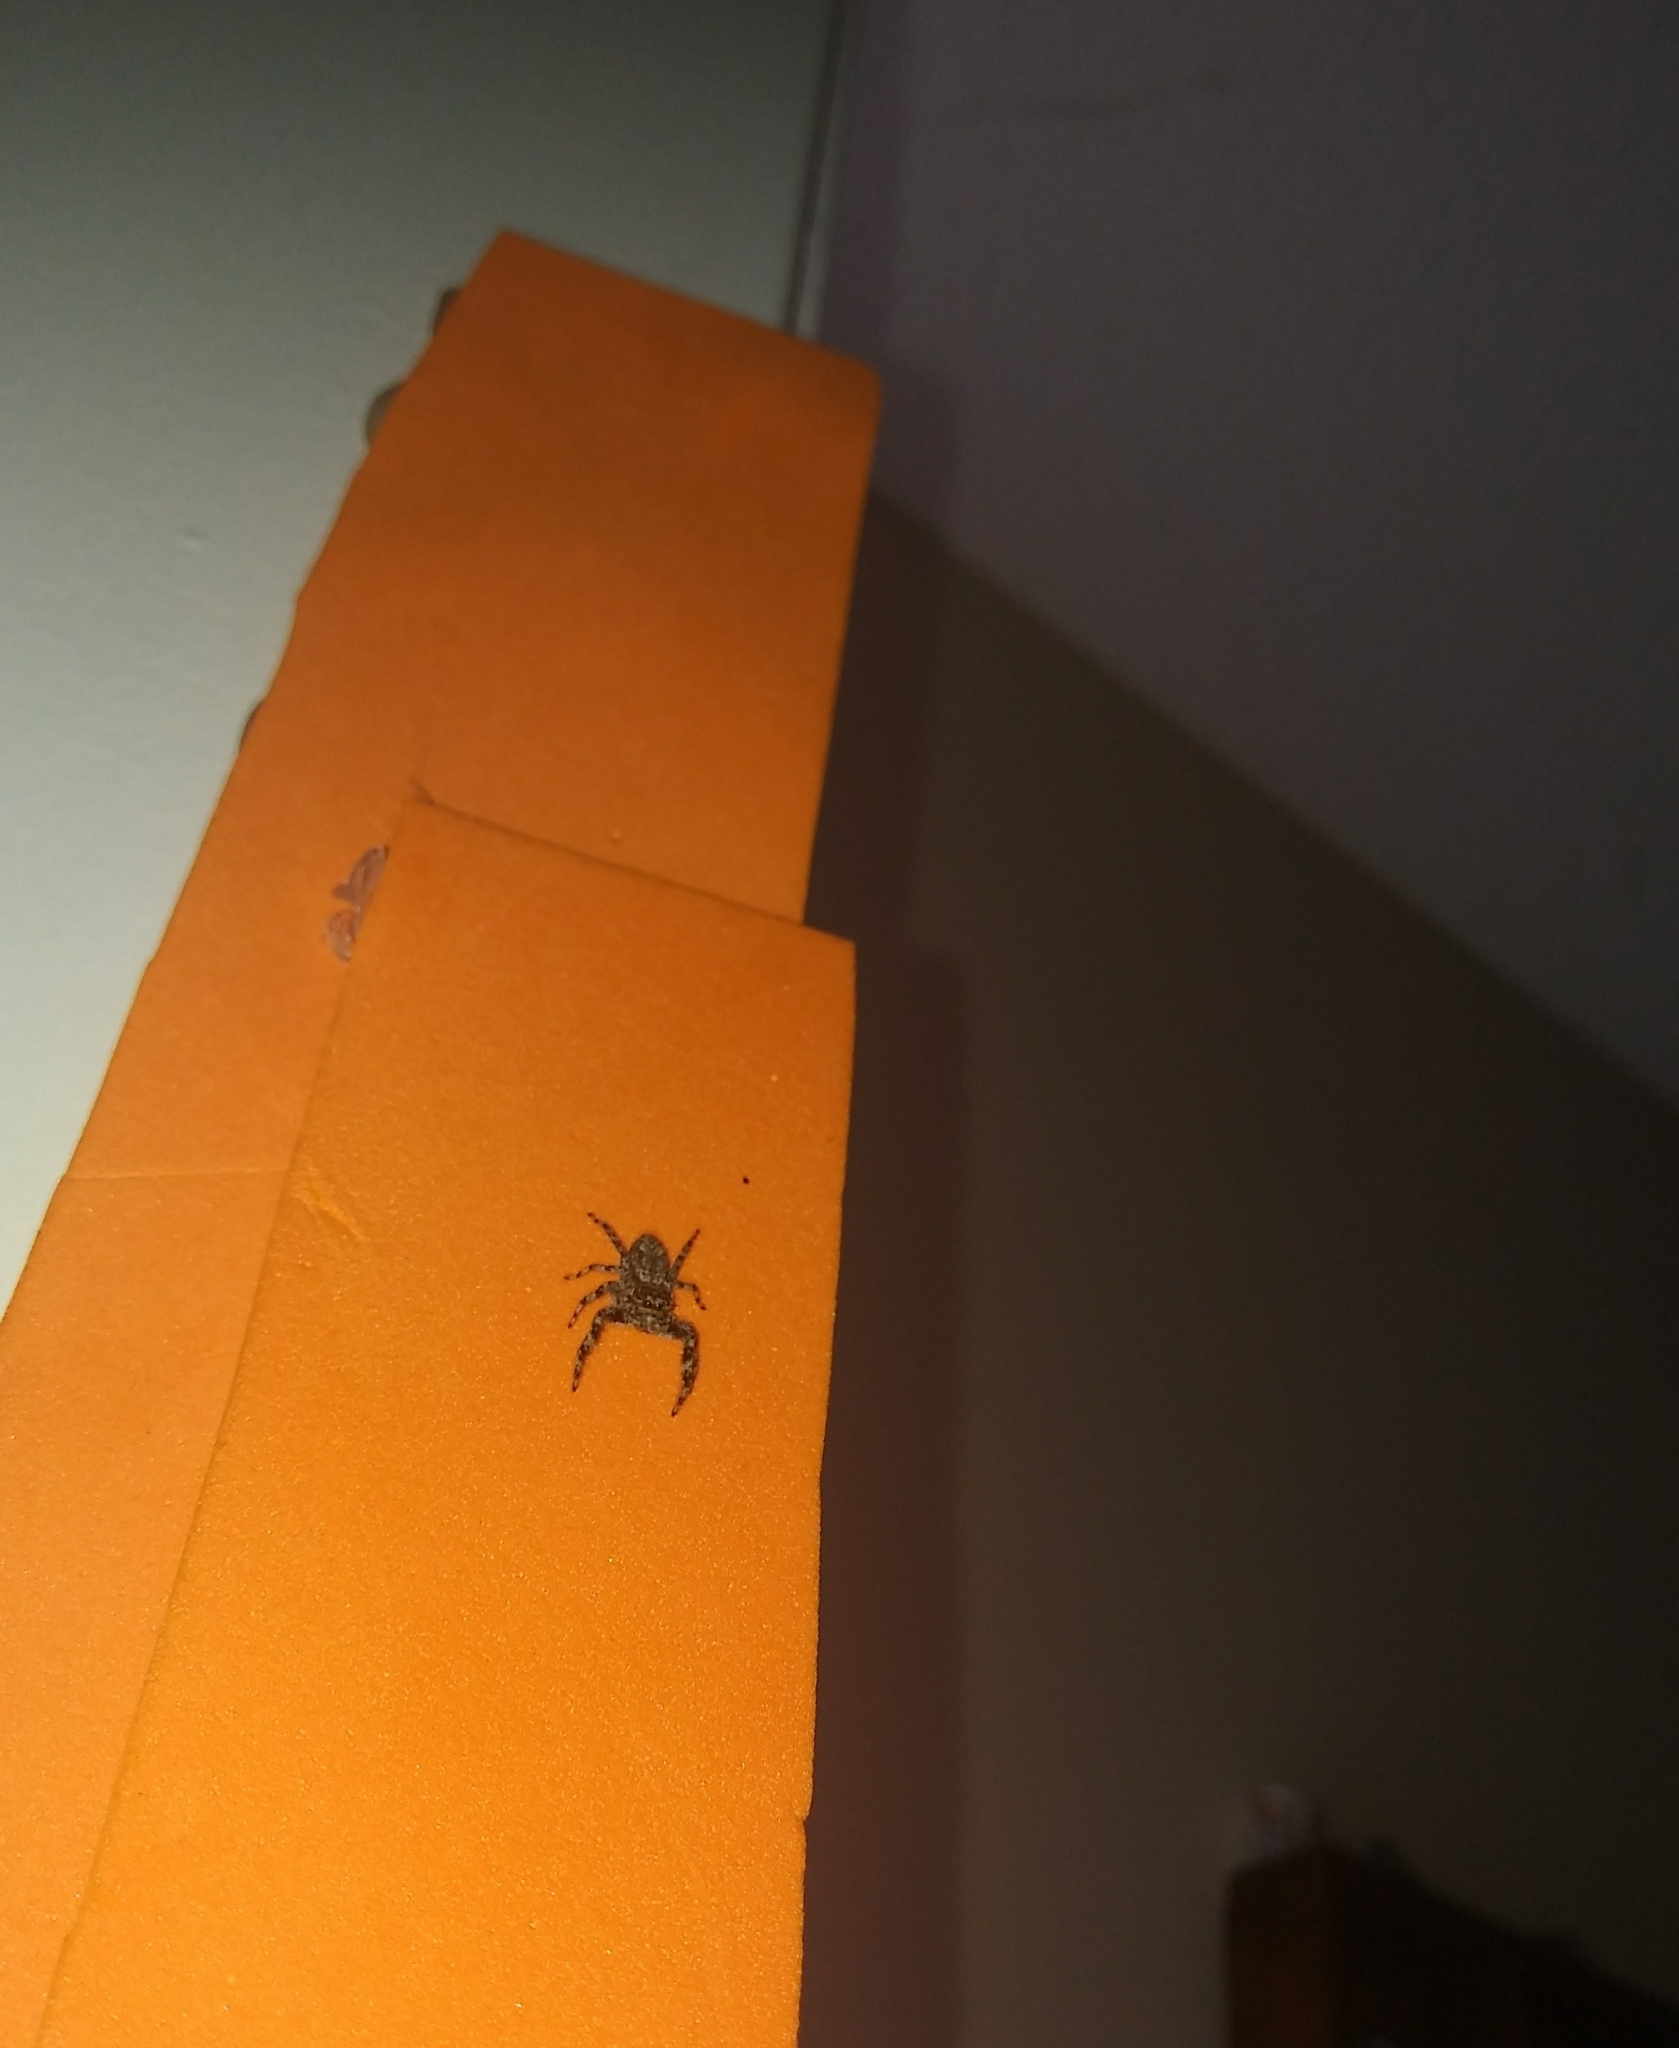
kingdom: Animalia
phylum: Arthropoda
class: Arachnida
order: Araneae
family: Salticidae
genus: Platycryptus
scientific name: Platycryptus undatus
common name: Tan jumping spider
